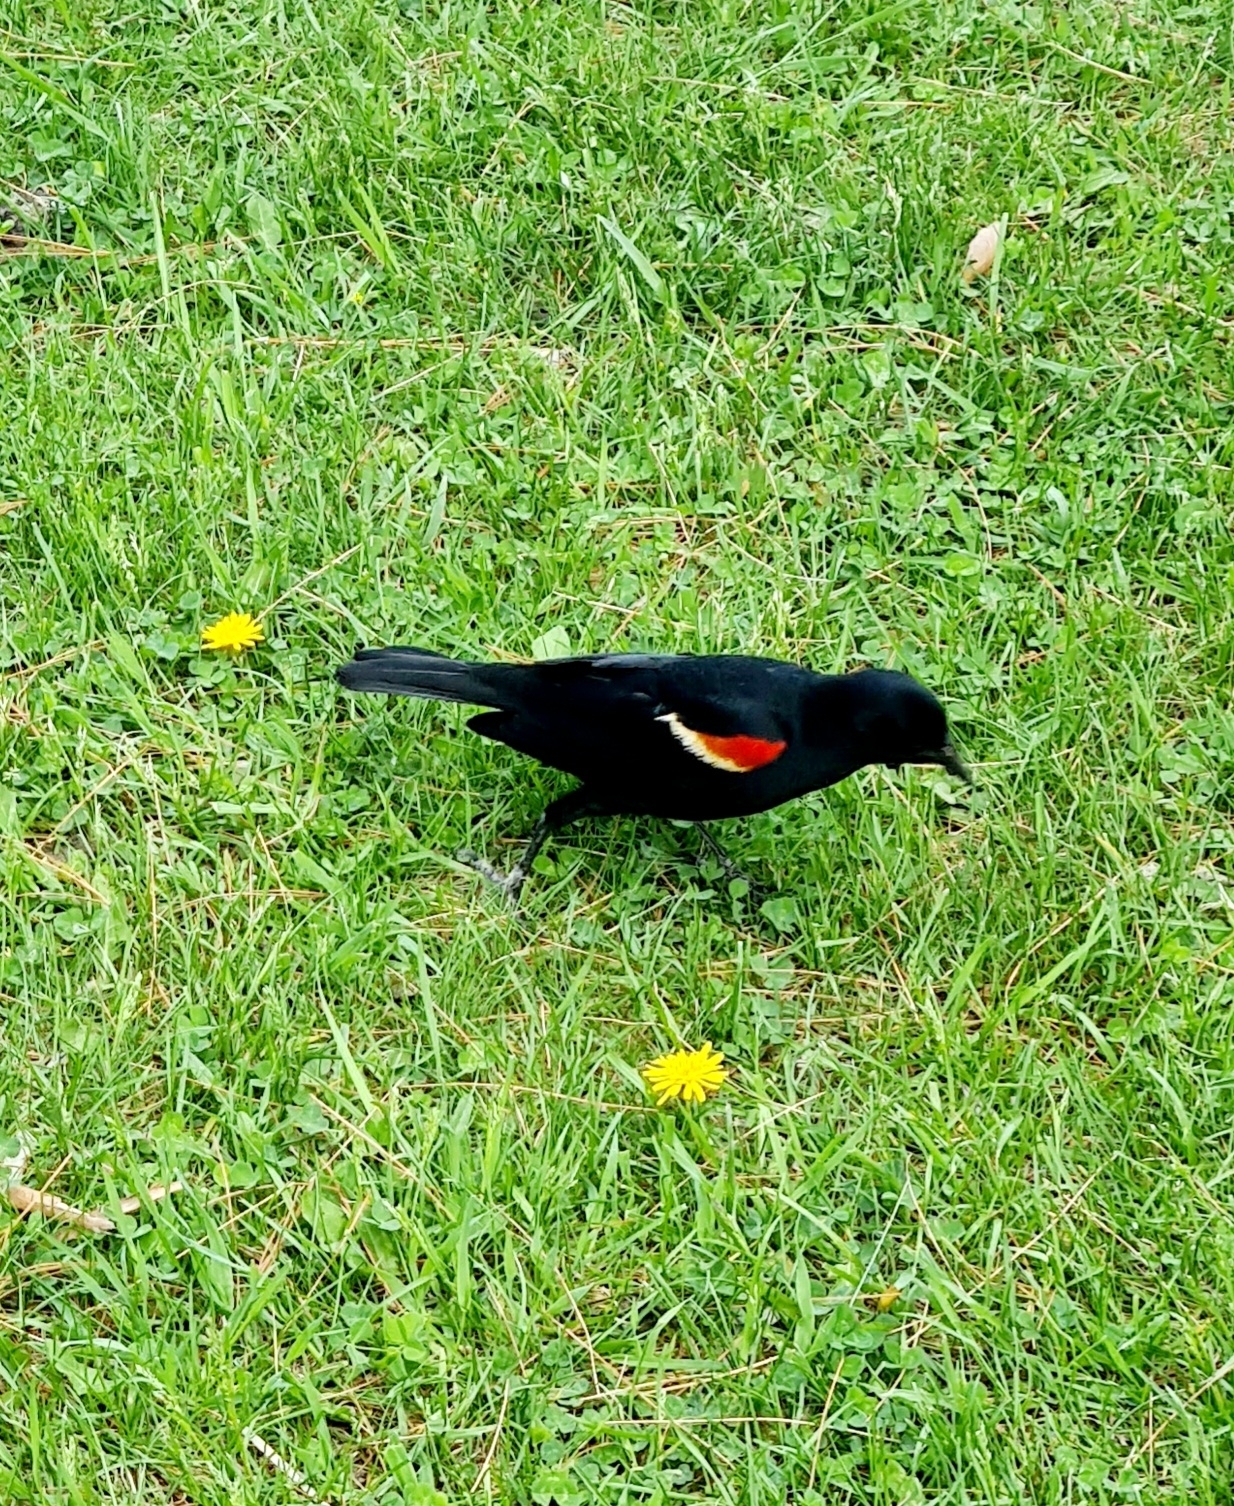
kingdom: Animalia
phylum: Chordata
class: Aves
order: Passeriformes
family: Icteridae
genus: Agelaius
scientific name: Agelaius phoeniceus
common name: Red-winged blackbird
